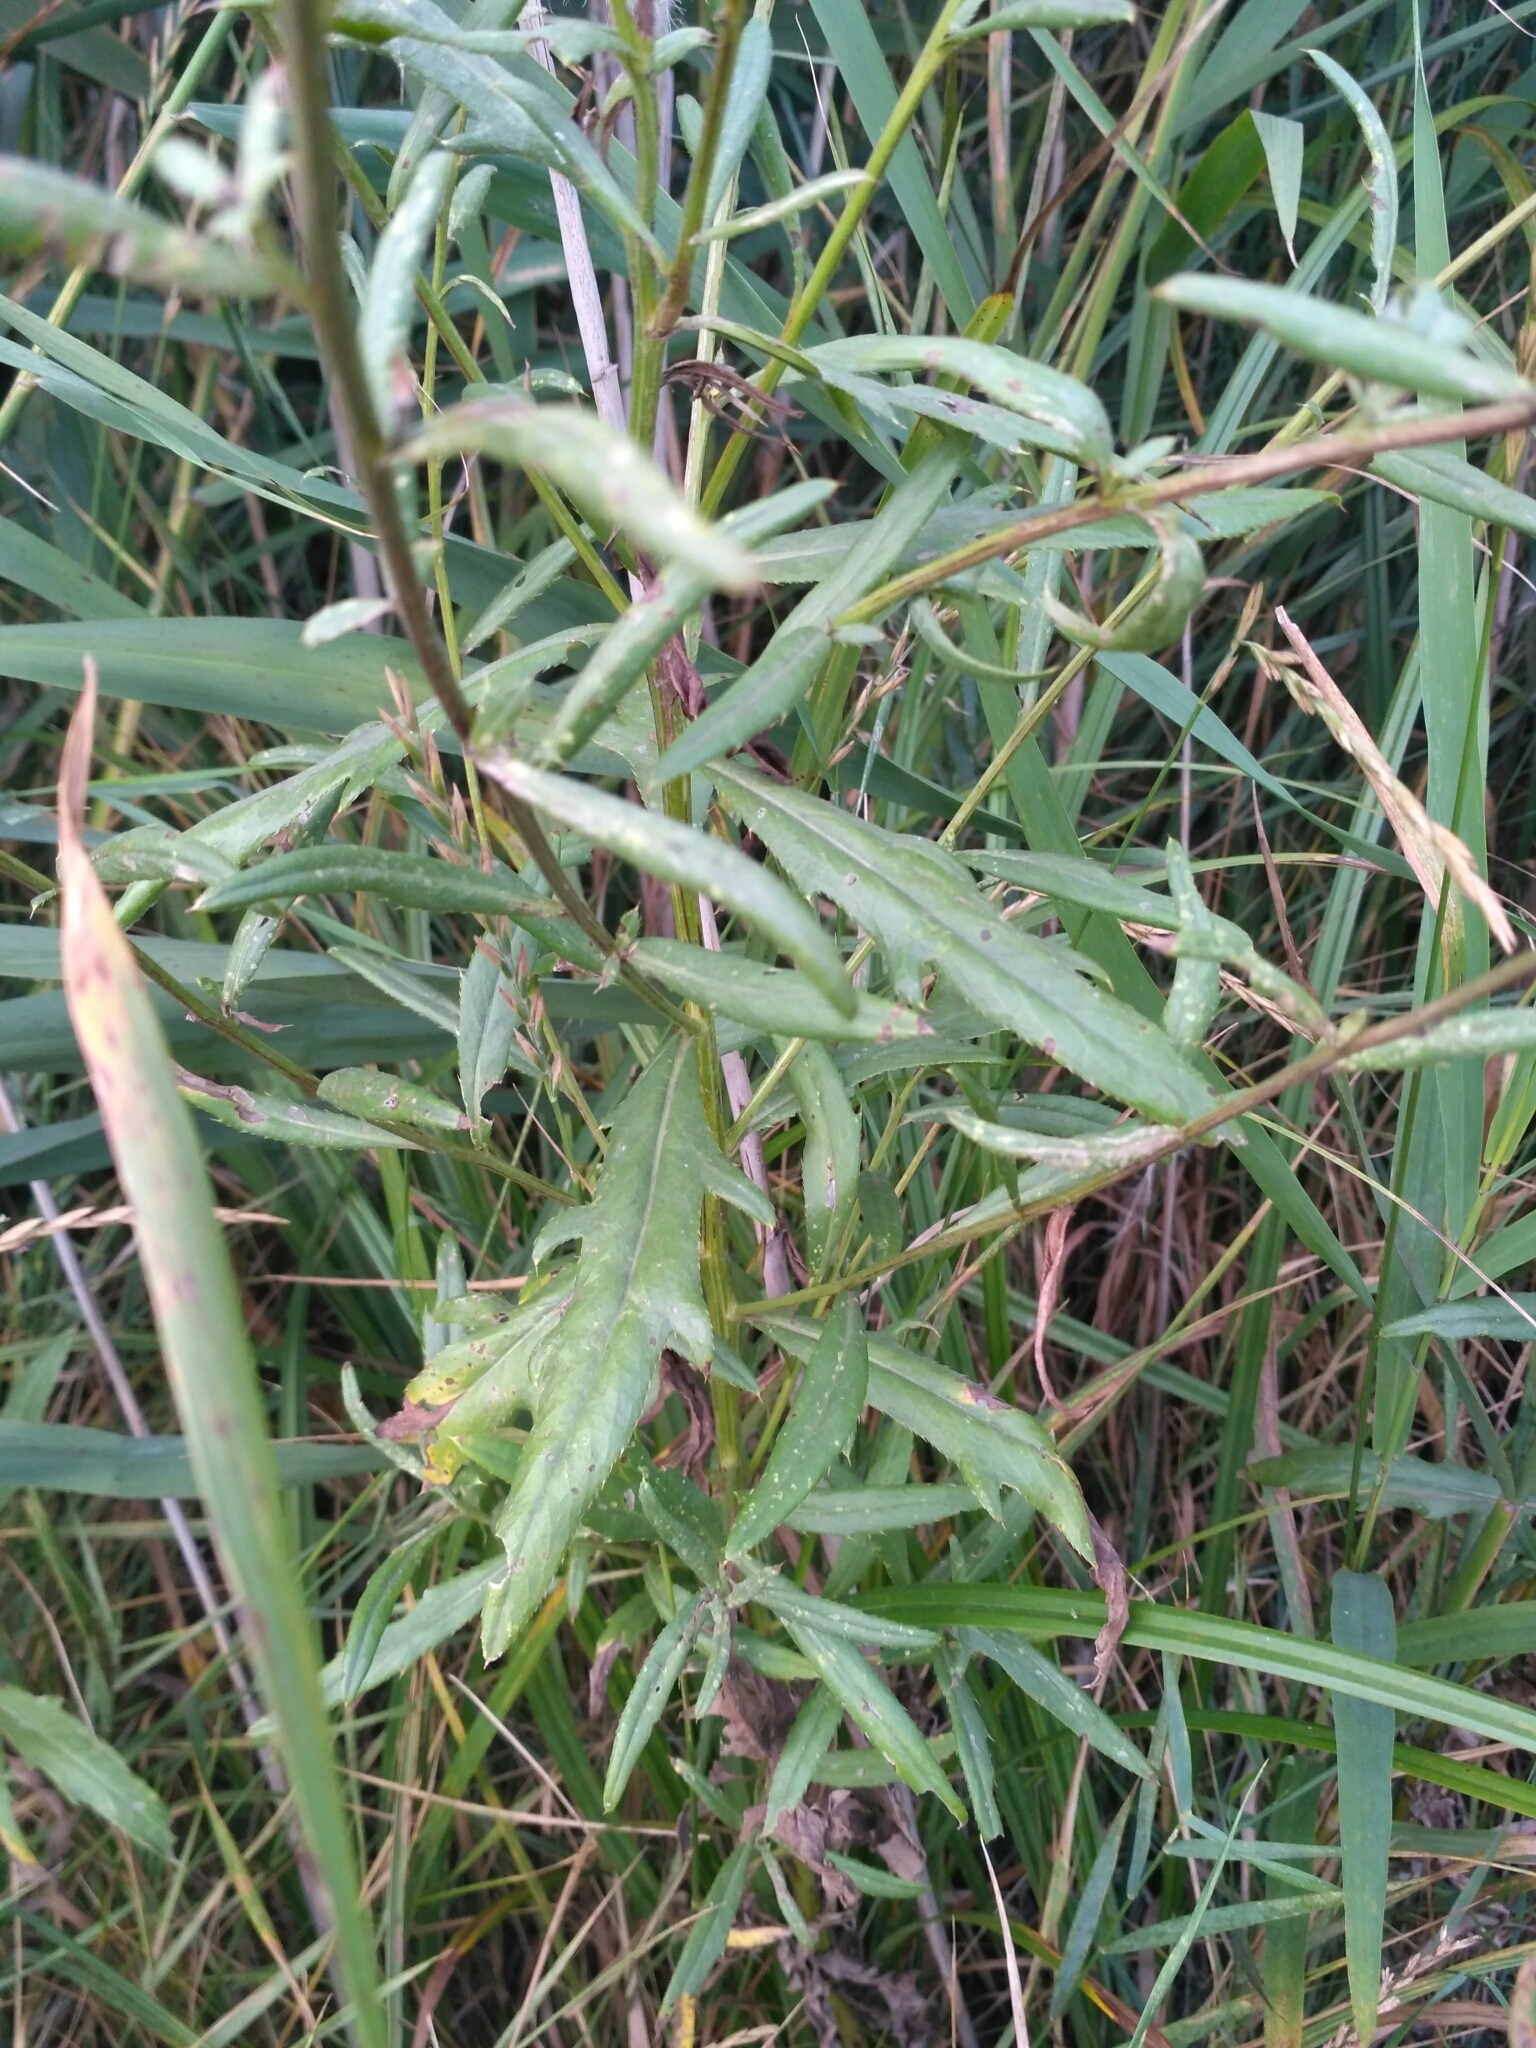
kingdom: Plantae
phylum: Tracheophyta
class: Magnoliopsida
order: Asterales
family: Asteraceae
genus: Cirsium
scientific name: Cirsium arvense
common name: Creeping thistle
